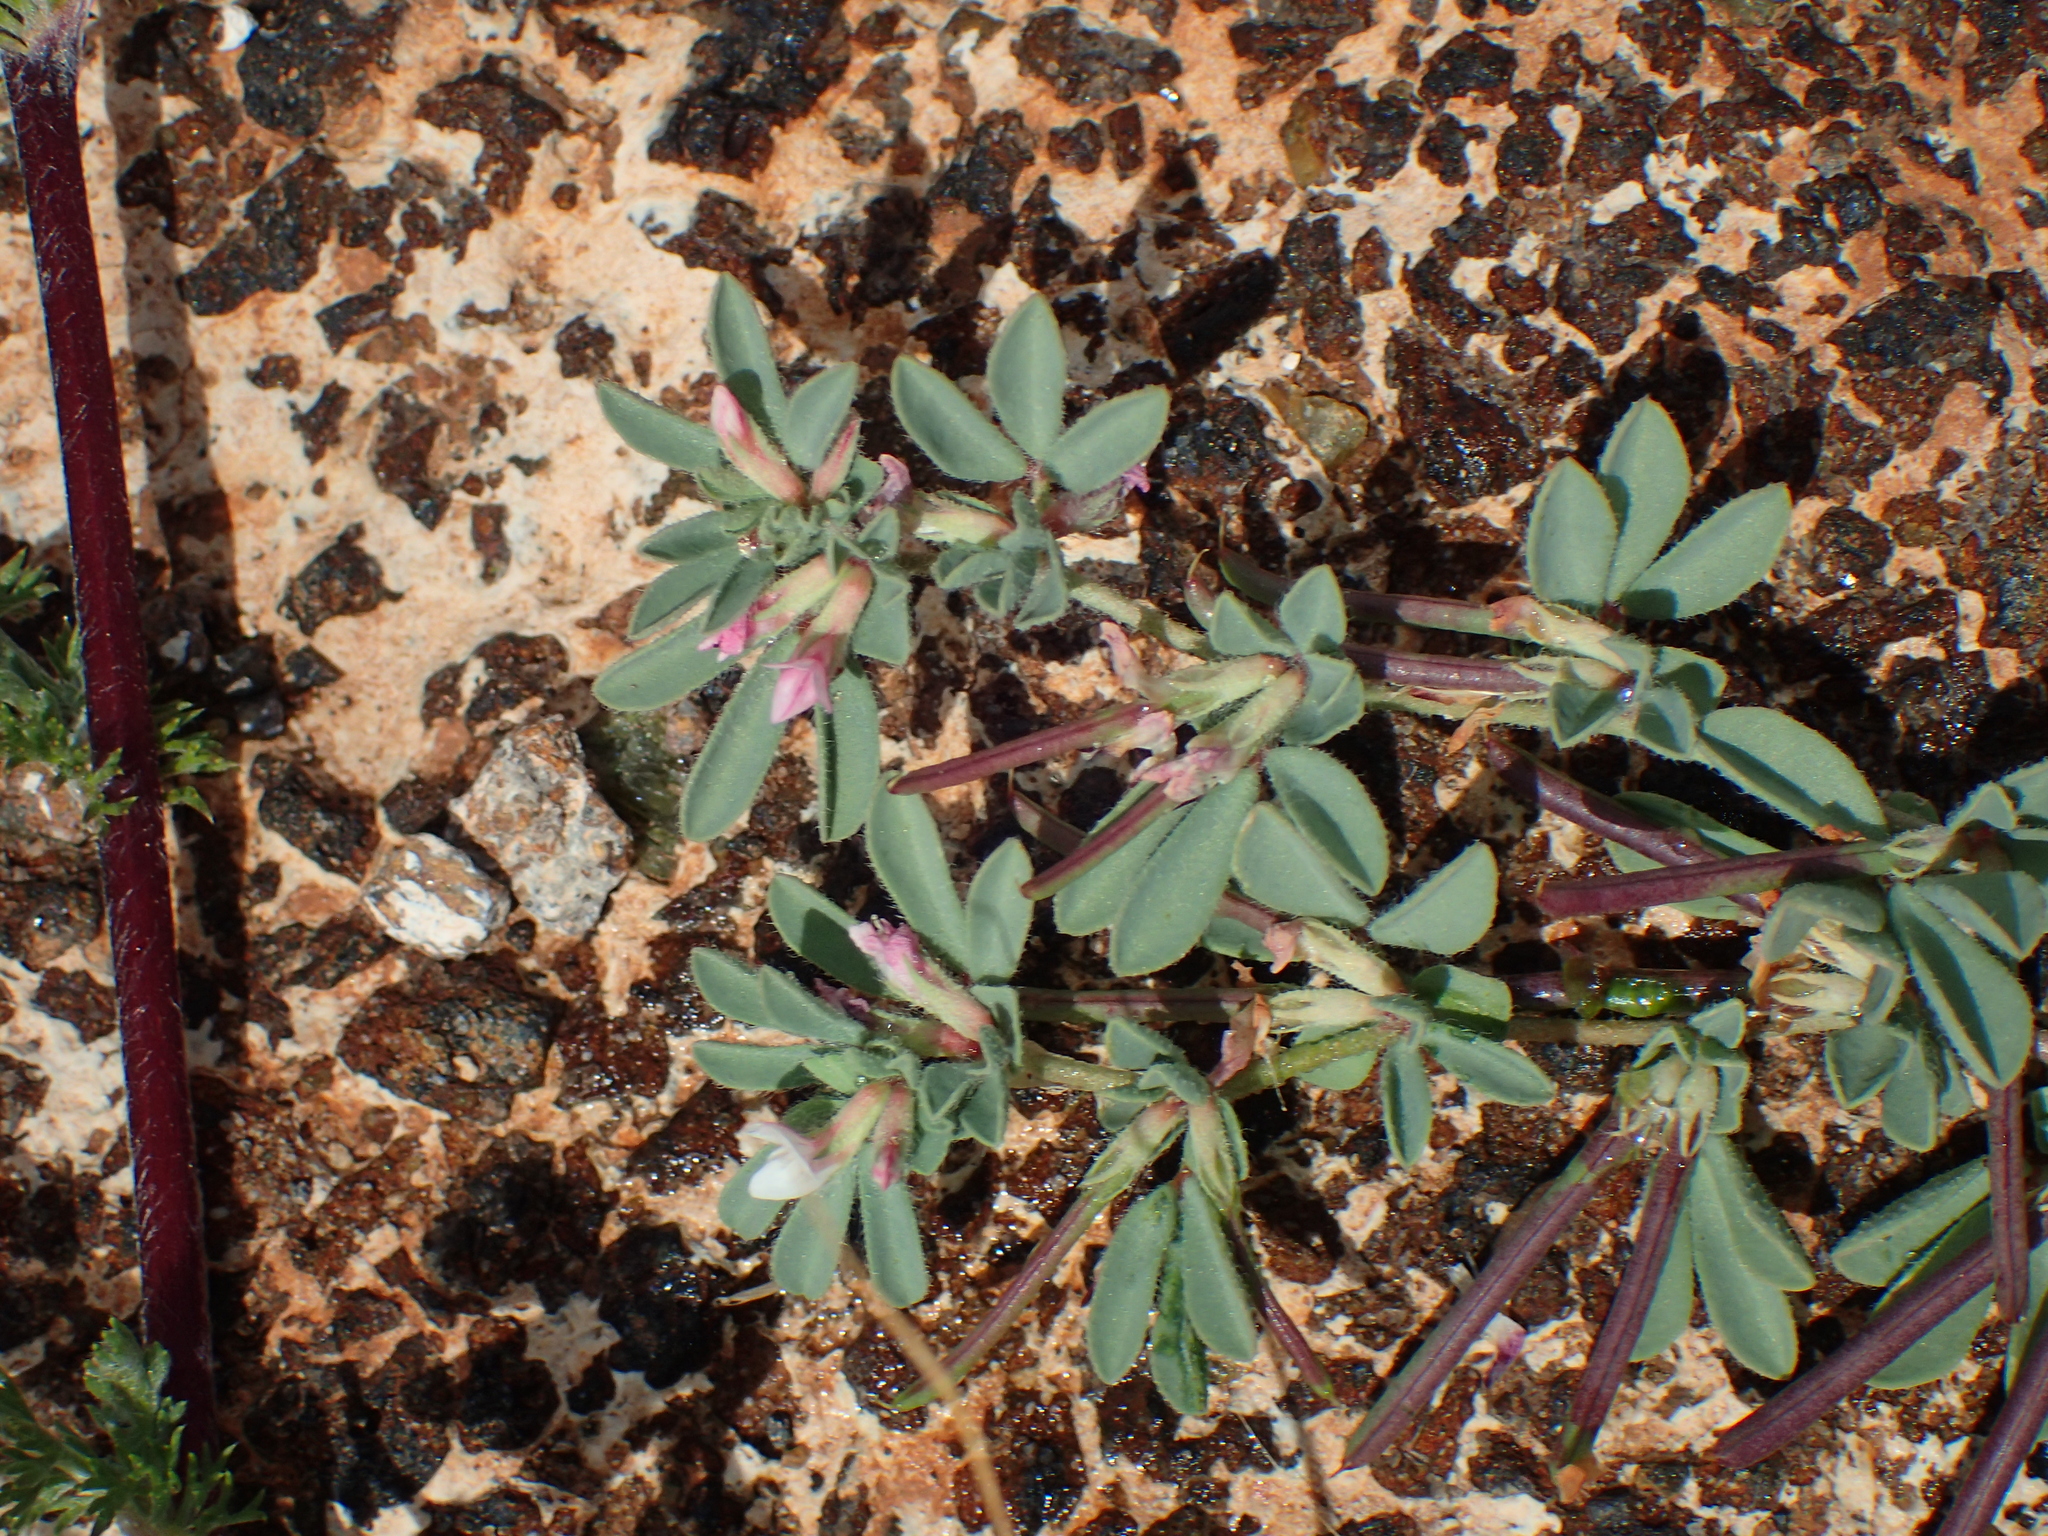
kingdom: Plantae
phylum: Tracheophyta
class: Magnoliopsida
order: Fabales
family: Fabaceae
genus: Lotus
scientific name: Lotus glinoides
